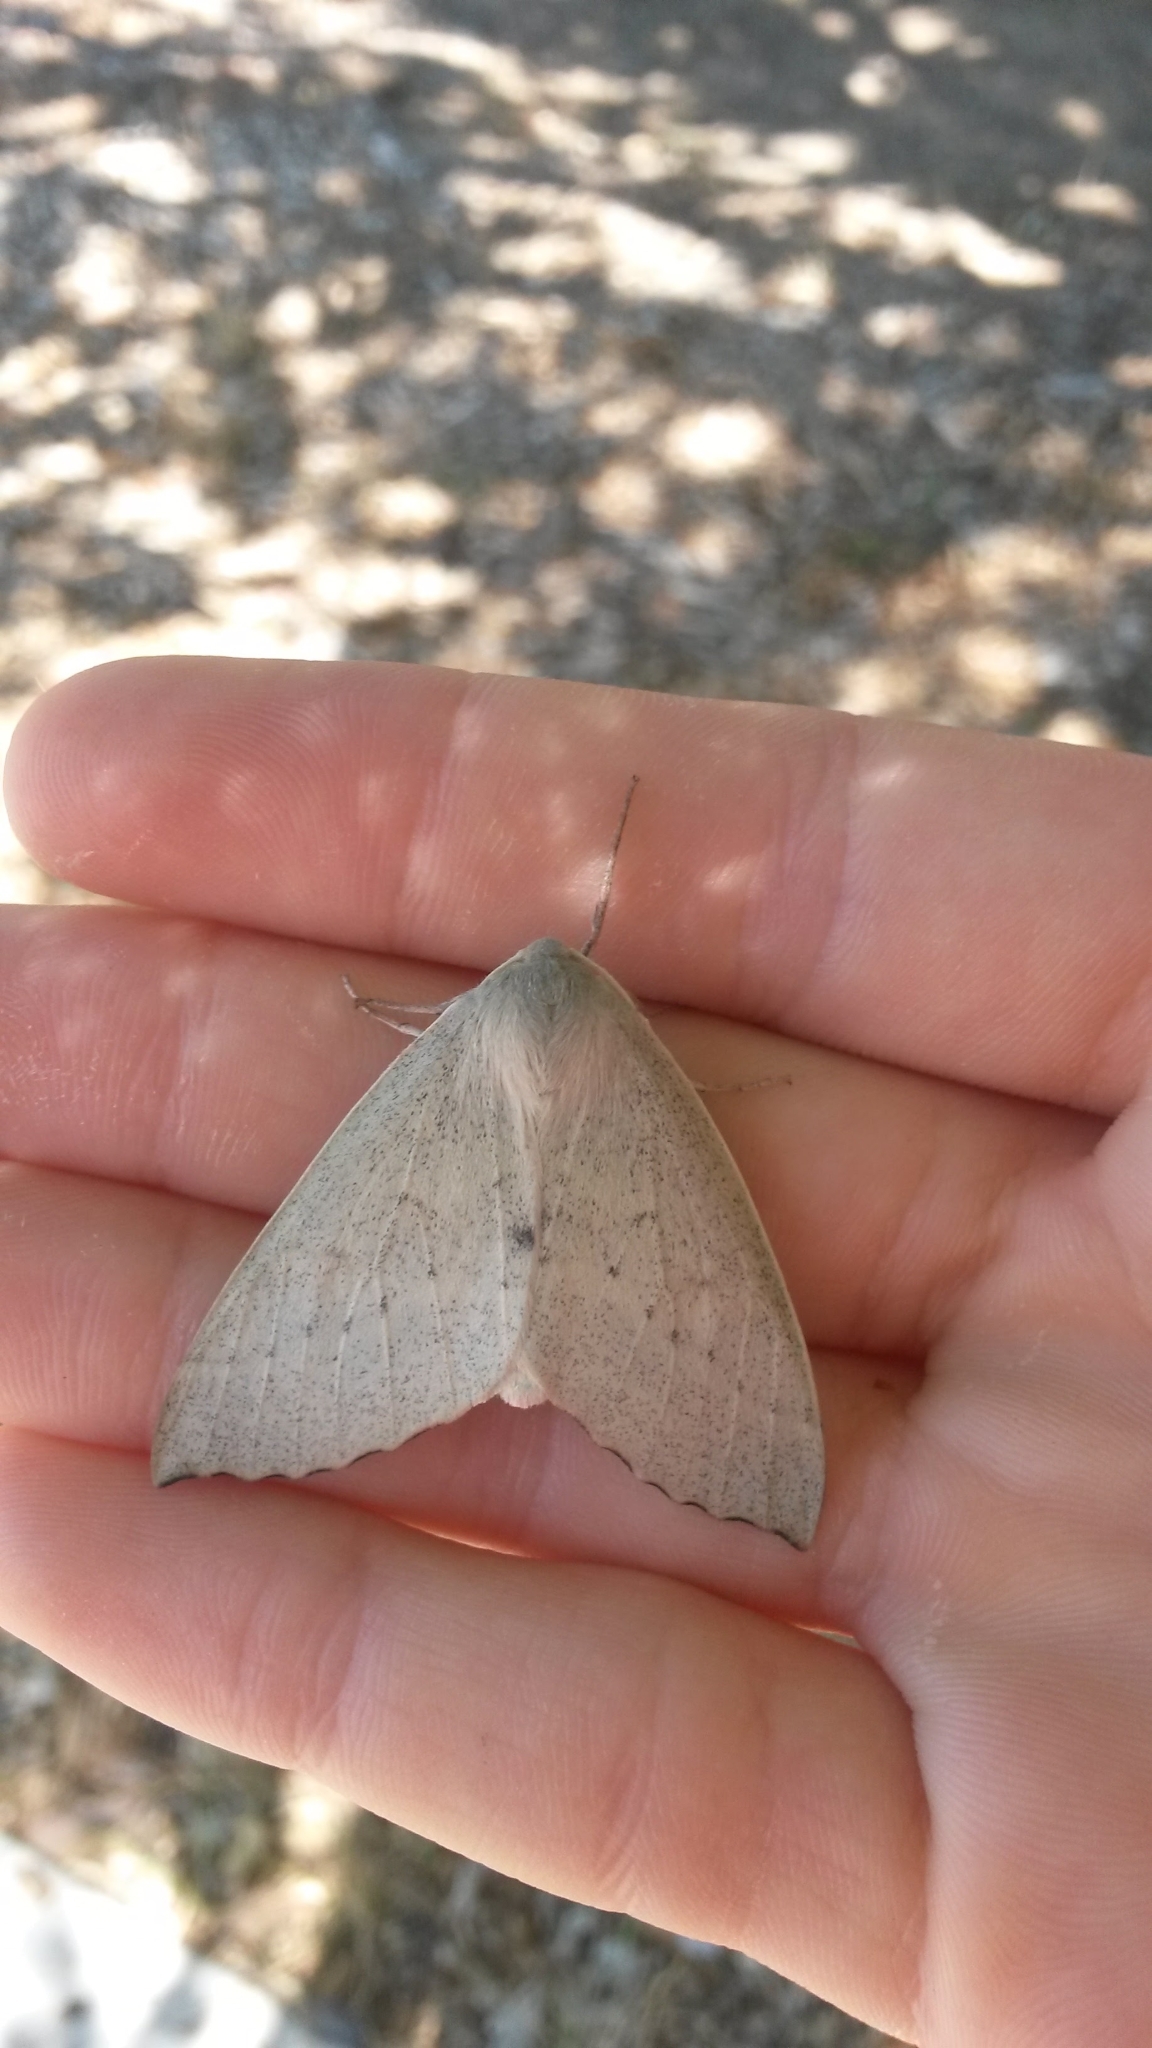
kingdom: Animalia
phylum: Arthropoda
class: Insecta
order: Lepidoptera
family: Geometridae
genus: Arhodia
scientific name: Arhodia lasiocamparia
